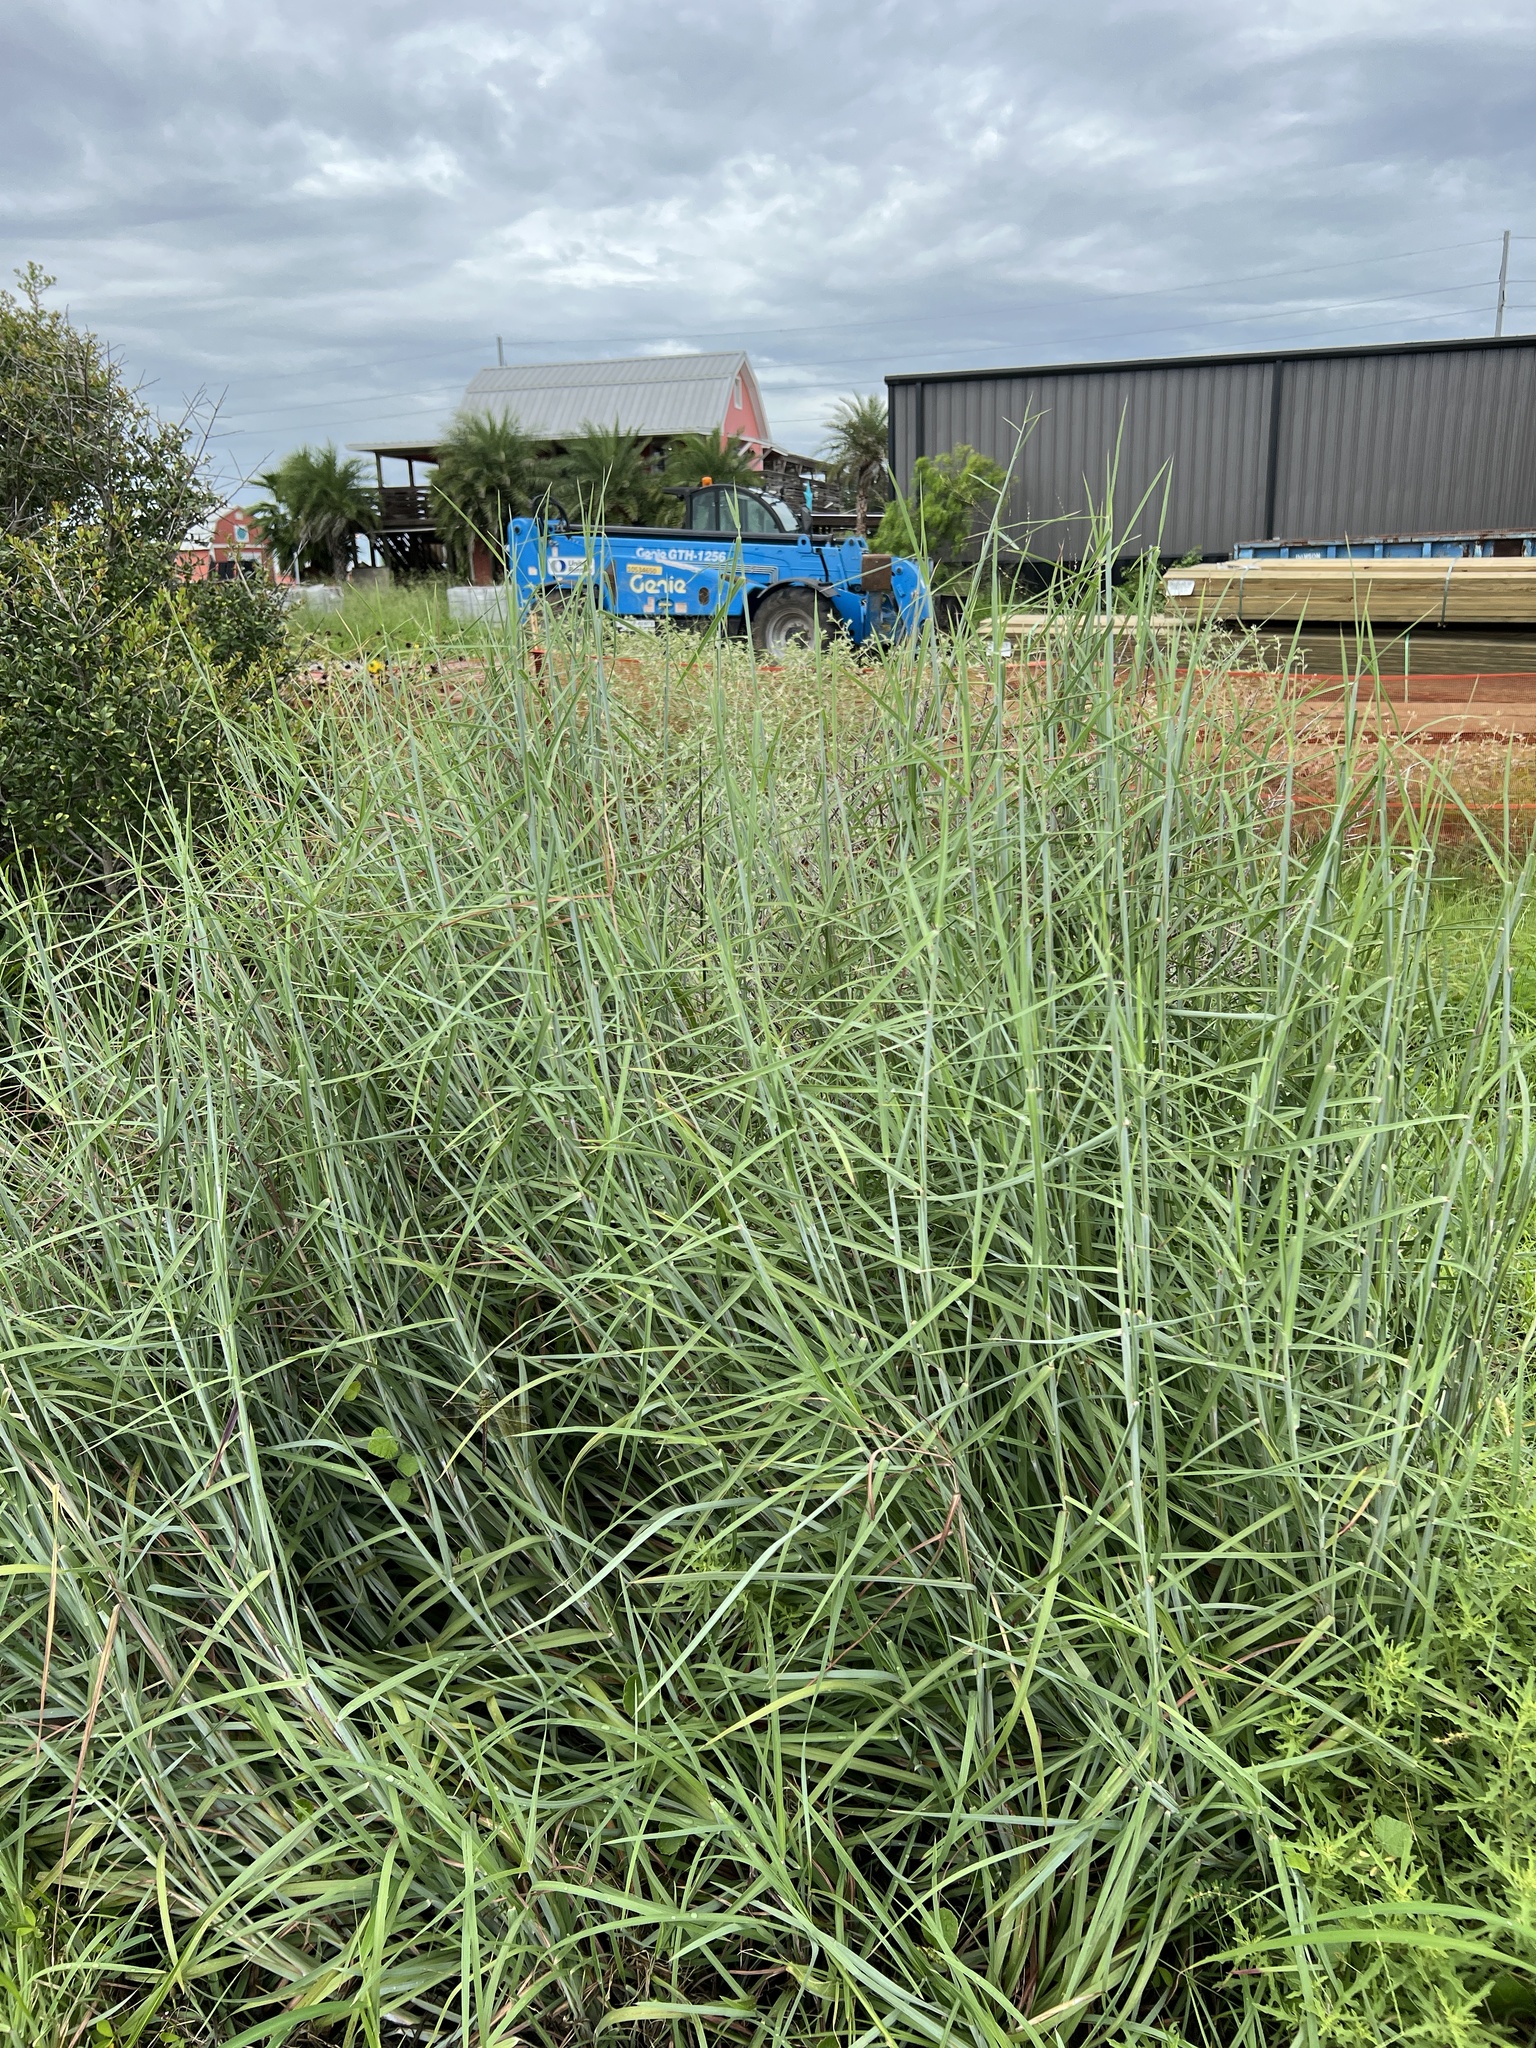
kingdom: Plantae
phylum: Tracheophyta
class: Liliopsida
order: Poales
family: Poaceae
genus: Schizachyrium
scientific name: Schizachyrium scoparium
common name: Little bluestem
